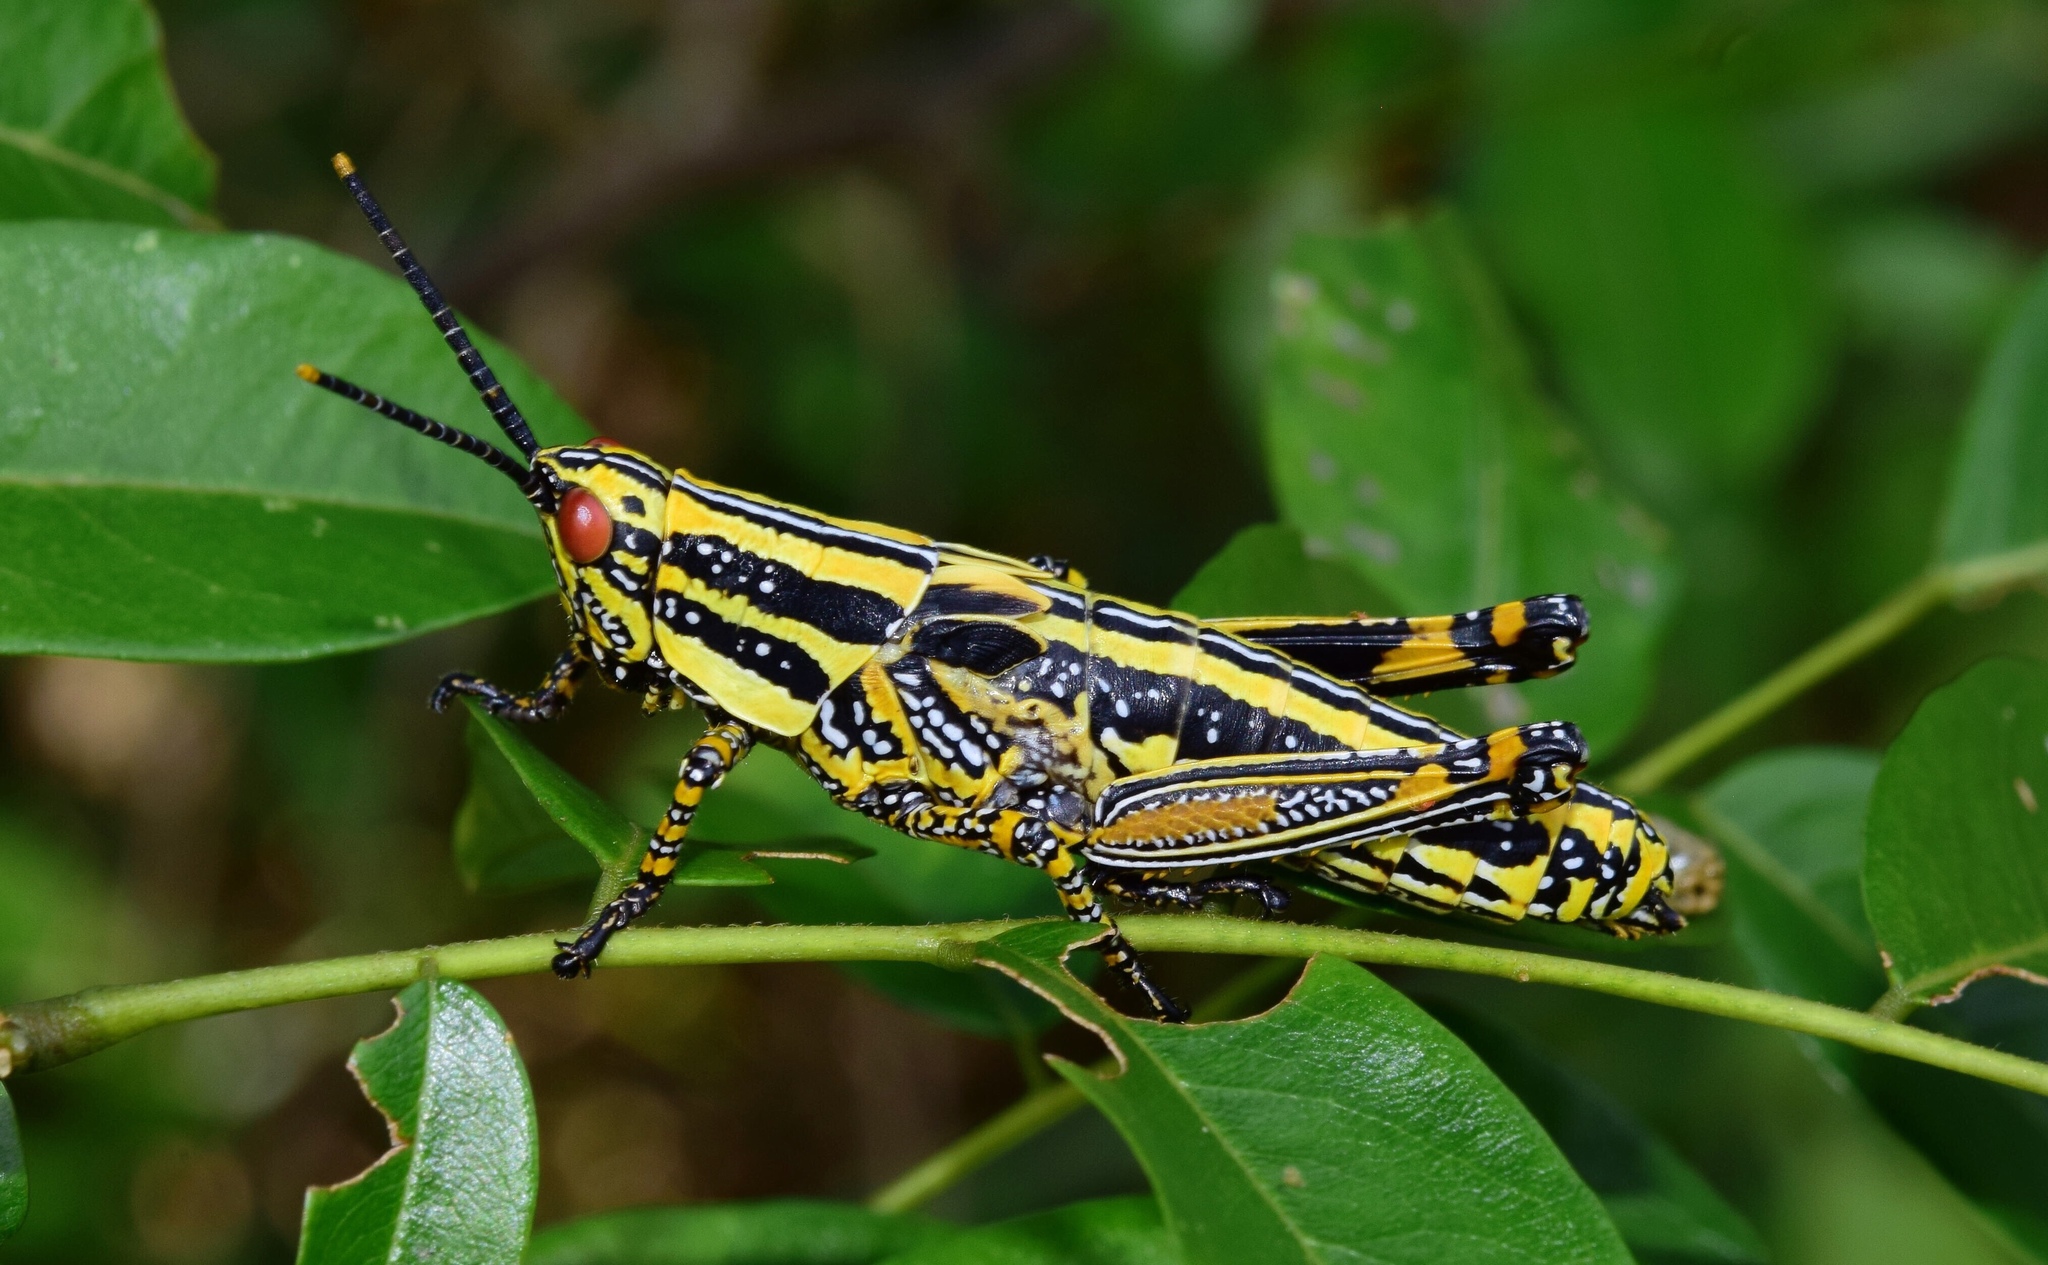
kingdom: Animalia
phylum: Arthropoda
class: Insecta
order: Orthoptera
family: Pyrgomorphidae
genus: Zonocerus
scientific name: Zonocerus elegans
